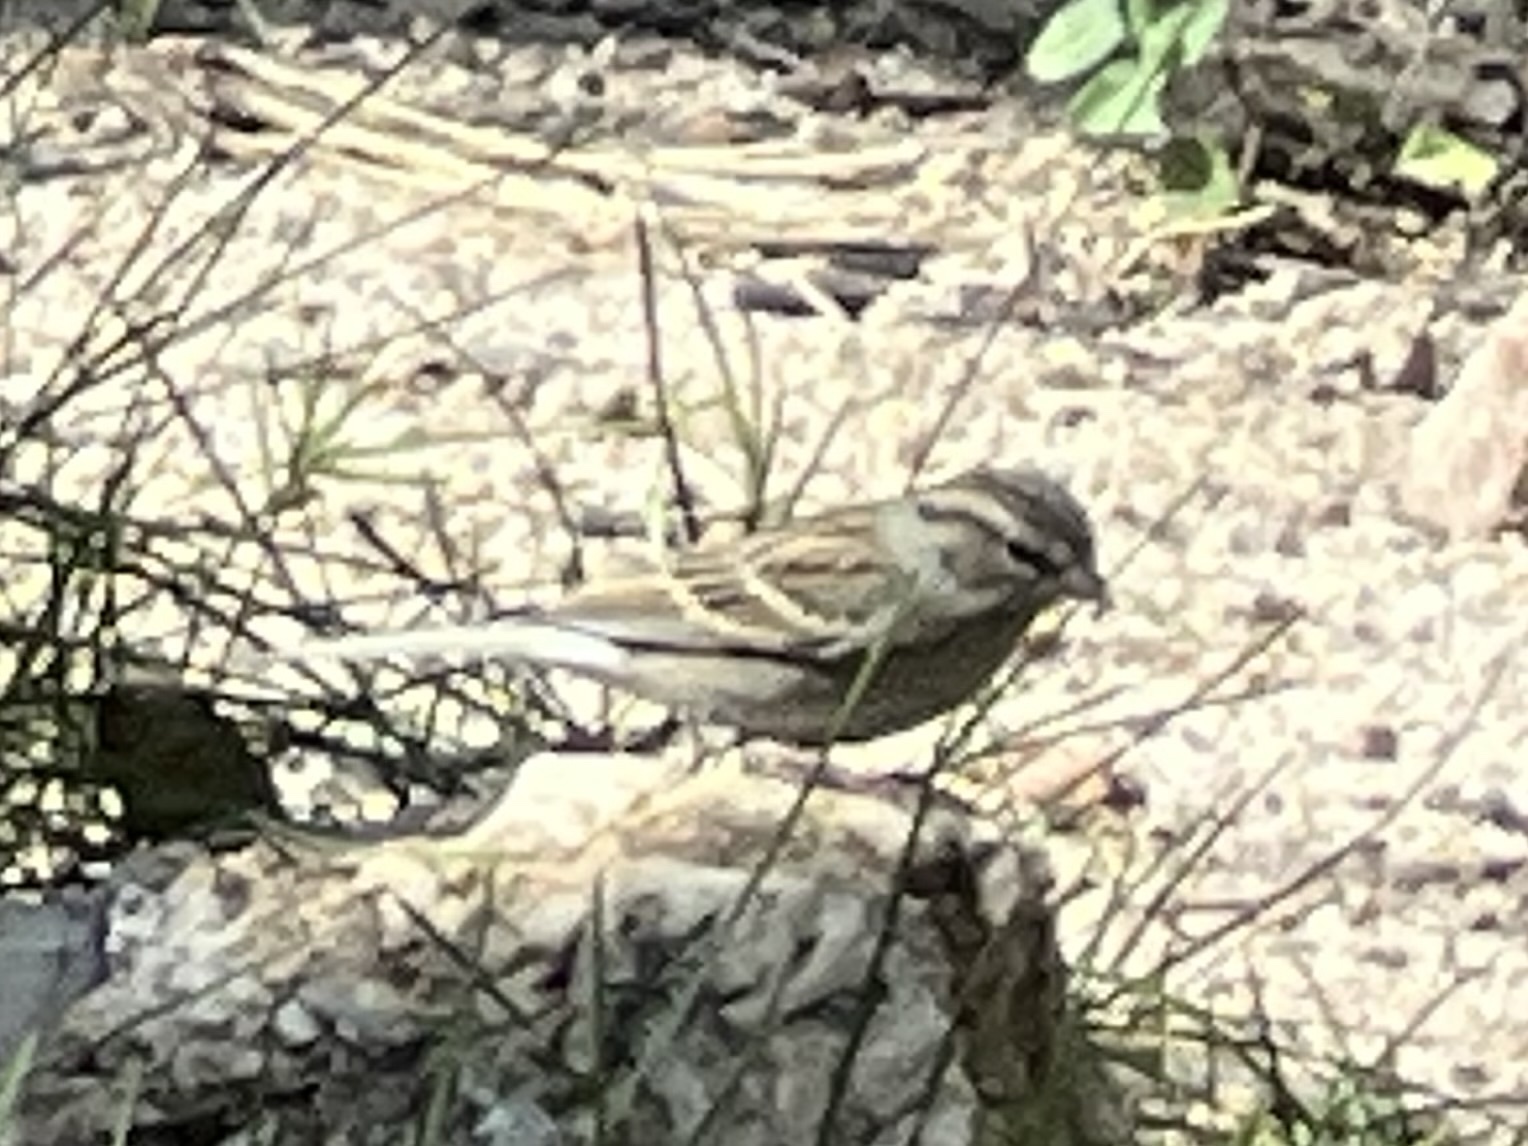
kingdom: Animalia
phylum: Chordata
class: Aves
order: Passeriformes
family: Passerellidae
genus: Spizella
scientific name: Spizella passerina
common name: Chipping sparrow
